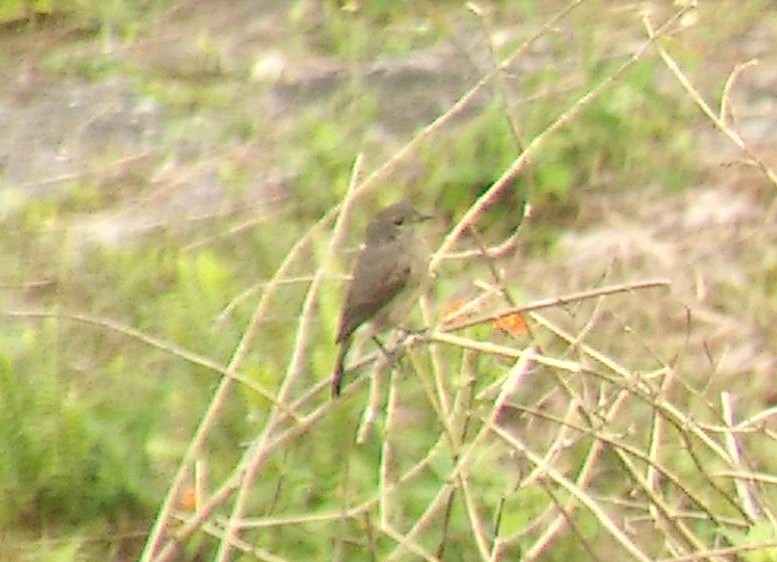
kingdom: Animalia
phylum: Chordata
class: Aves
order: Passeriformes
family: Muscicapidae
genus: Saxicola
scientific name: Saxicola caprata
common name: Pied bush chat
